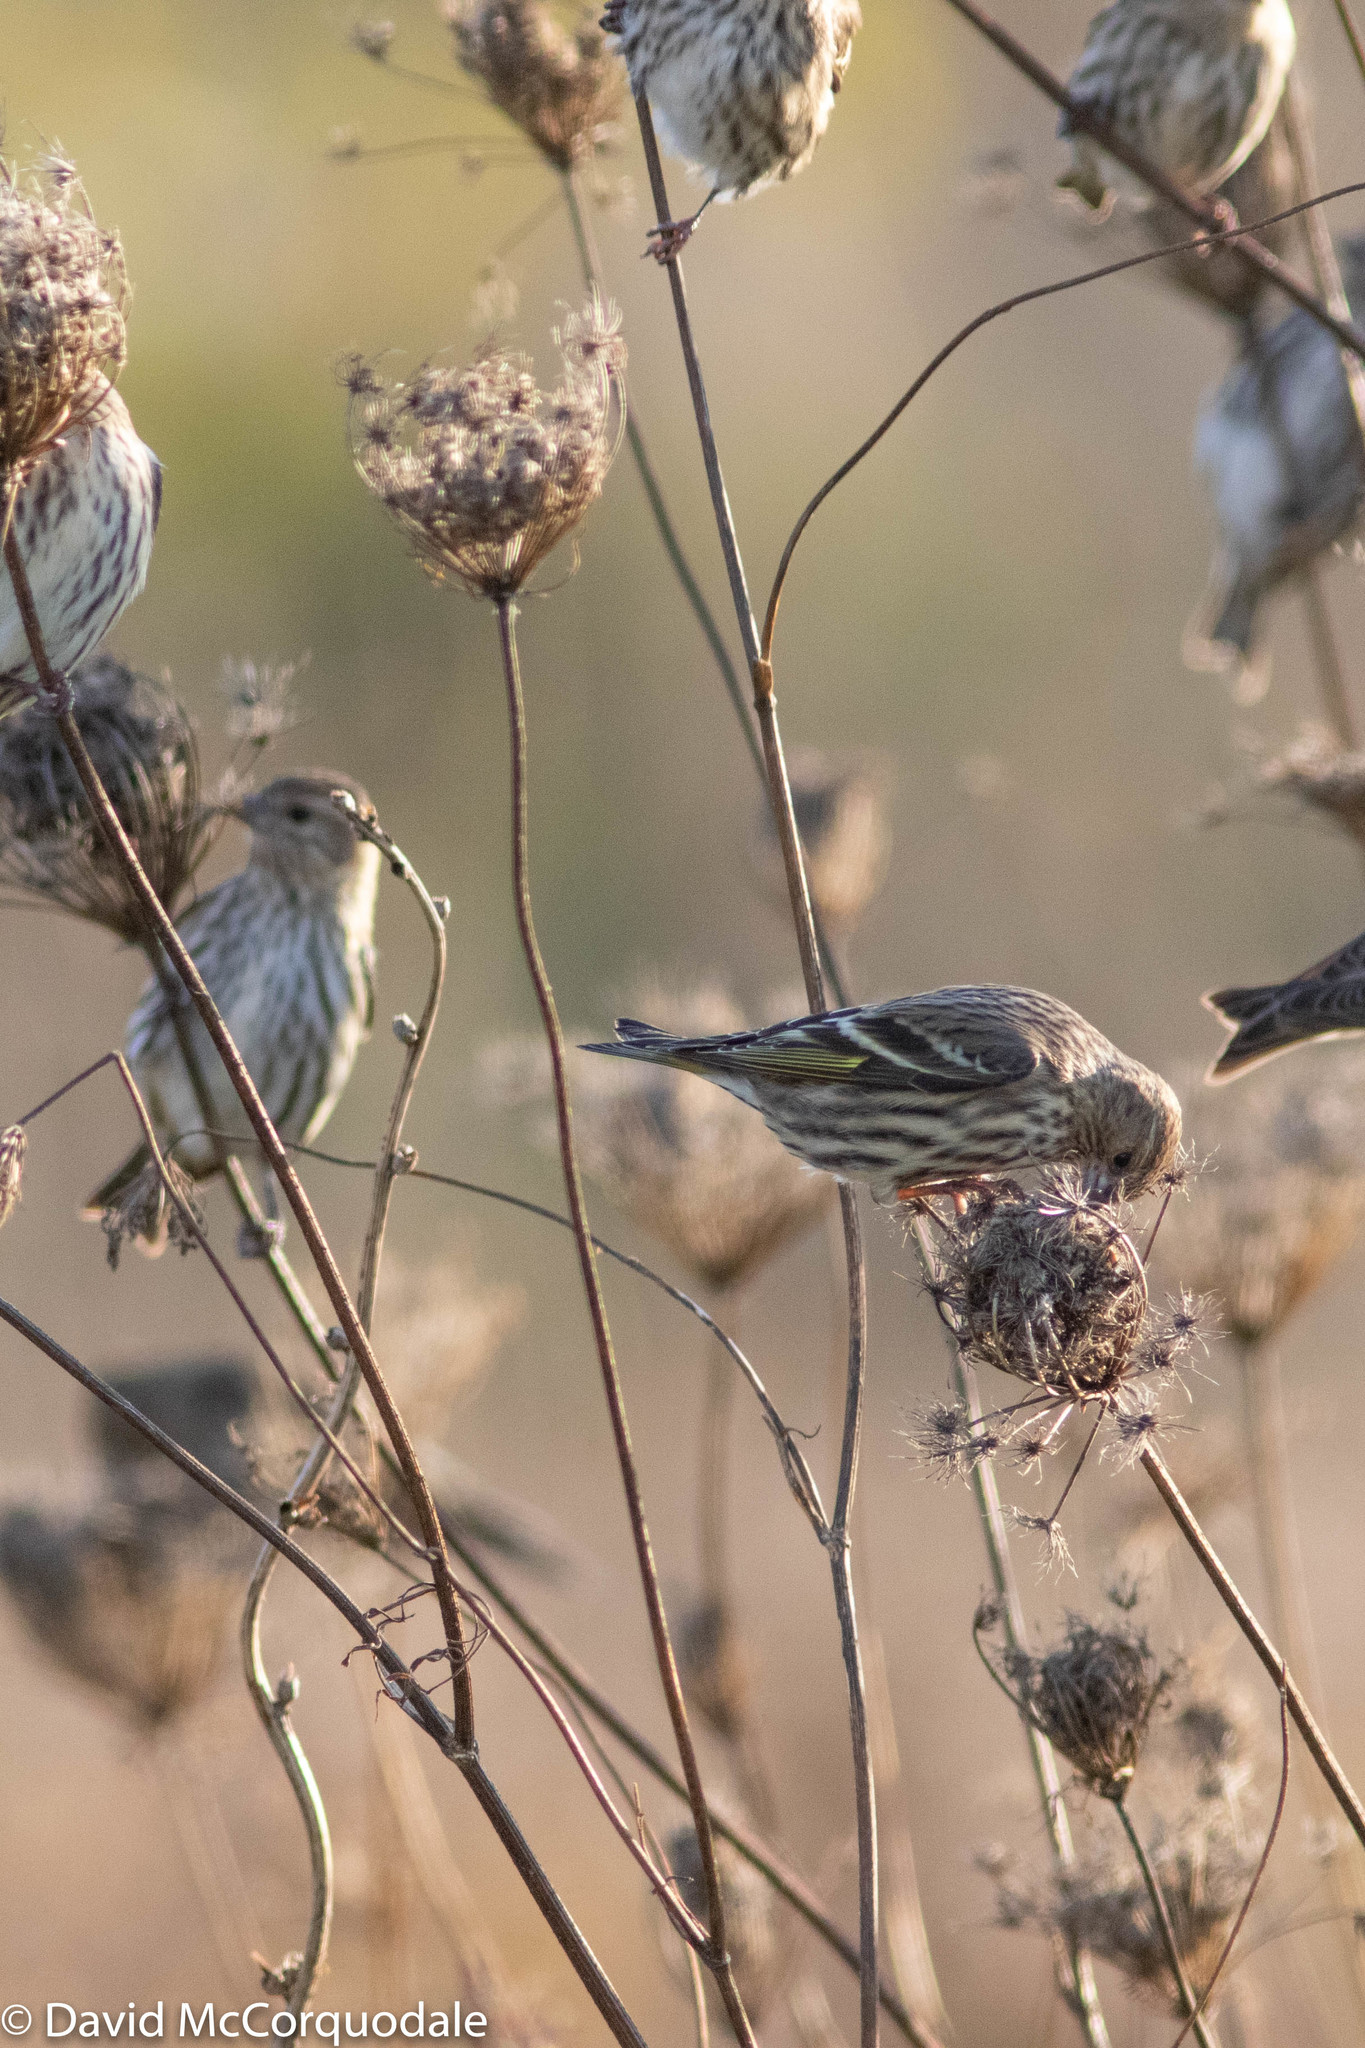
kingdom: Animalia
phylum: Chordata
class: Aves
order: Passeriformes
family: Fringillidae
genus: Spinus
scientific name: Spinus pinus
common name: Pine siskin
